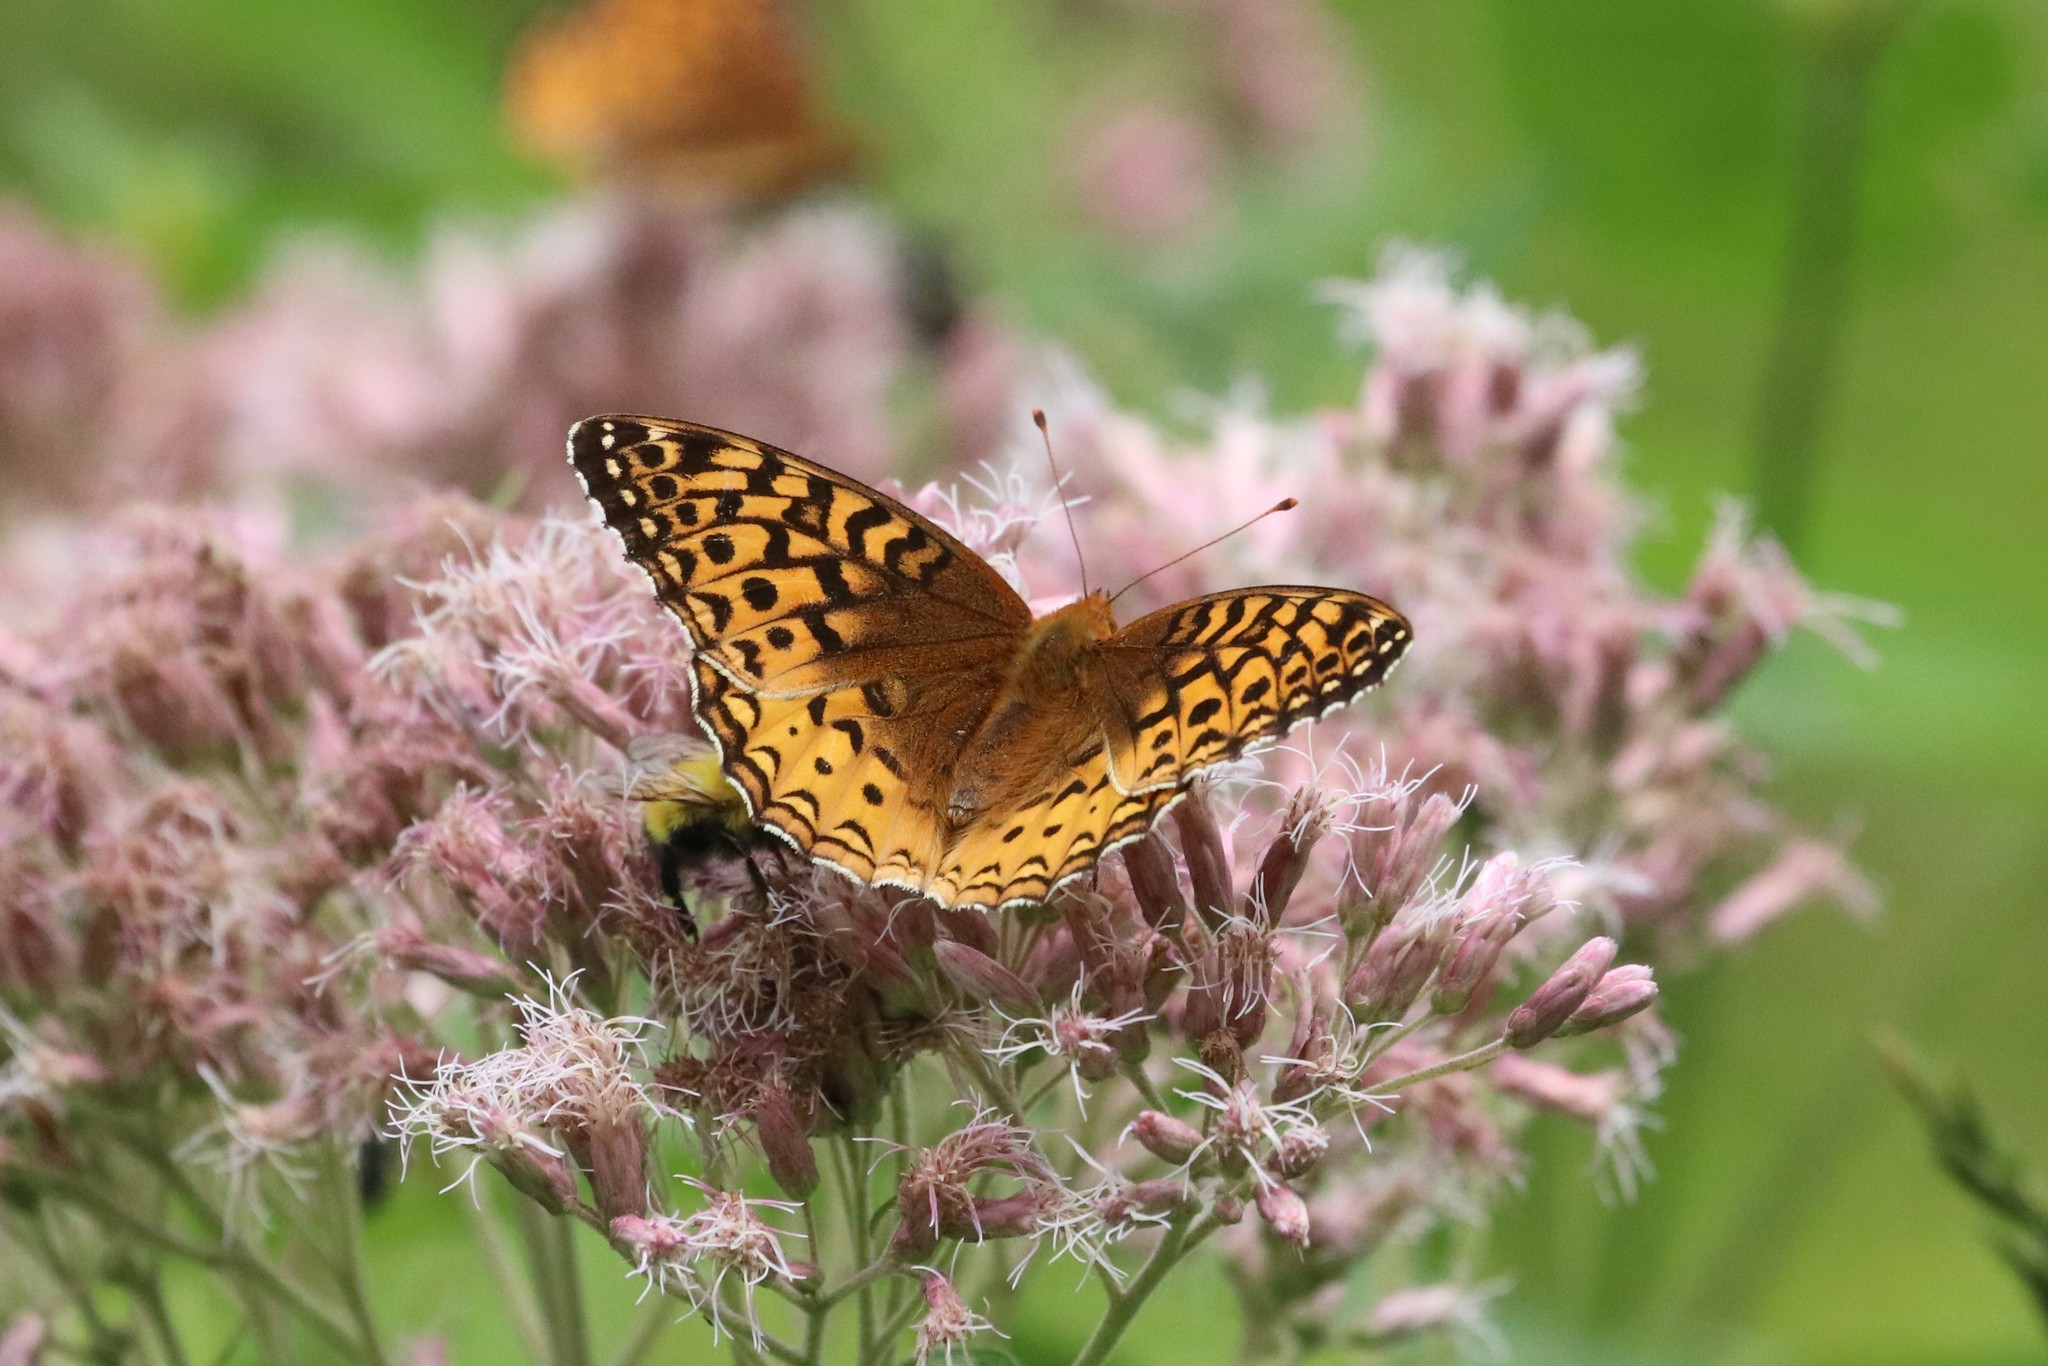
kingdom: Animalia
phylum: Arthropoda
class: Insecta
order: Lepidoptera
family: Nymphalidae
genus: Speyeria
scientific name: Speyeria cybele
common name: Great spangled fritillary
